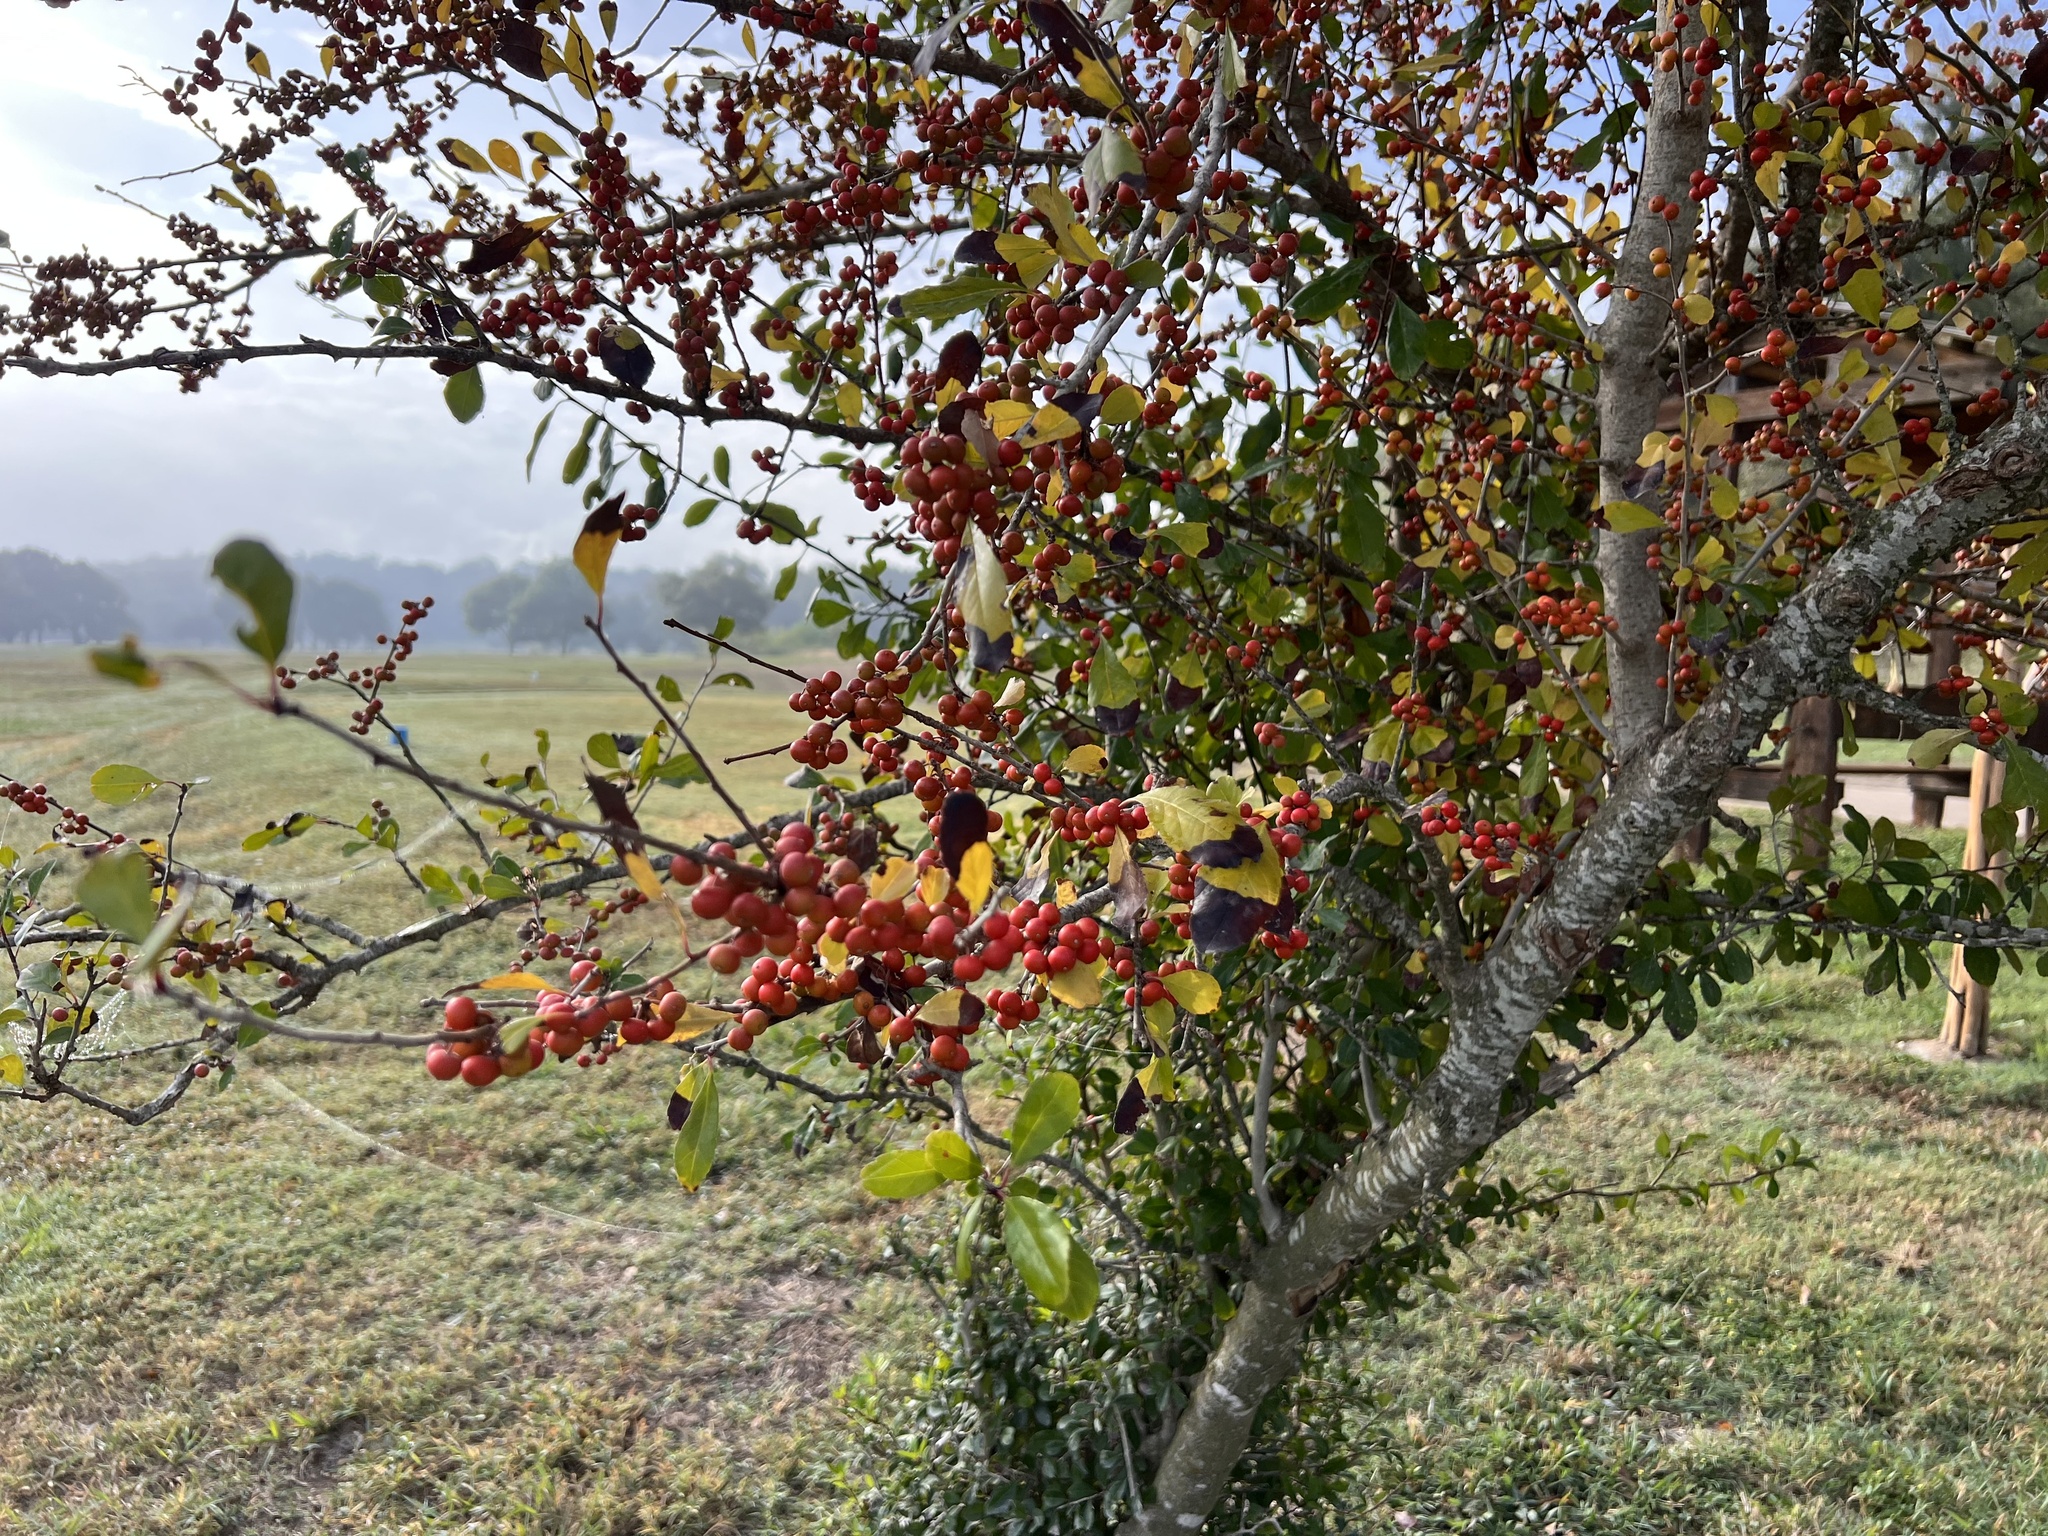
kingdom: Plantae
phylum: Tracheophyta
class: Magnoliopsida
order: Aquifoliales
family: Aquifoliaceae
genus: Ilex
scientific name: Ilex decidua
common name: Possum-haw
